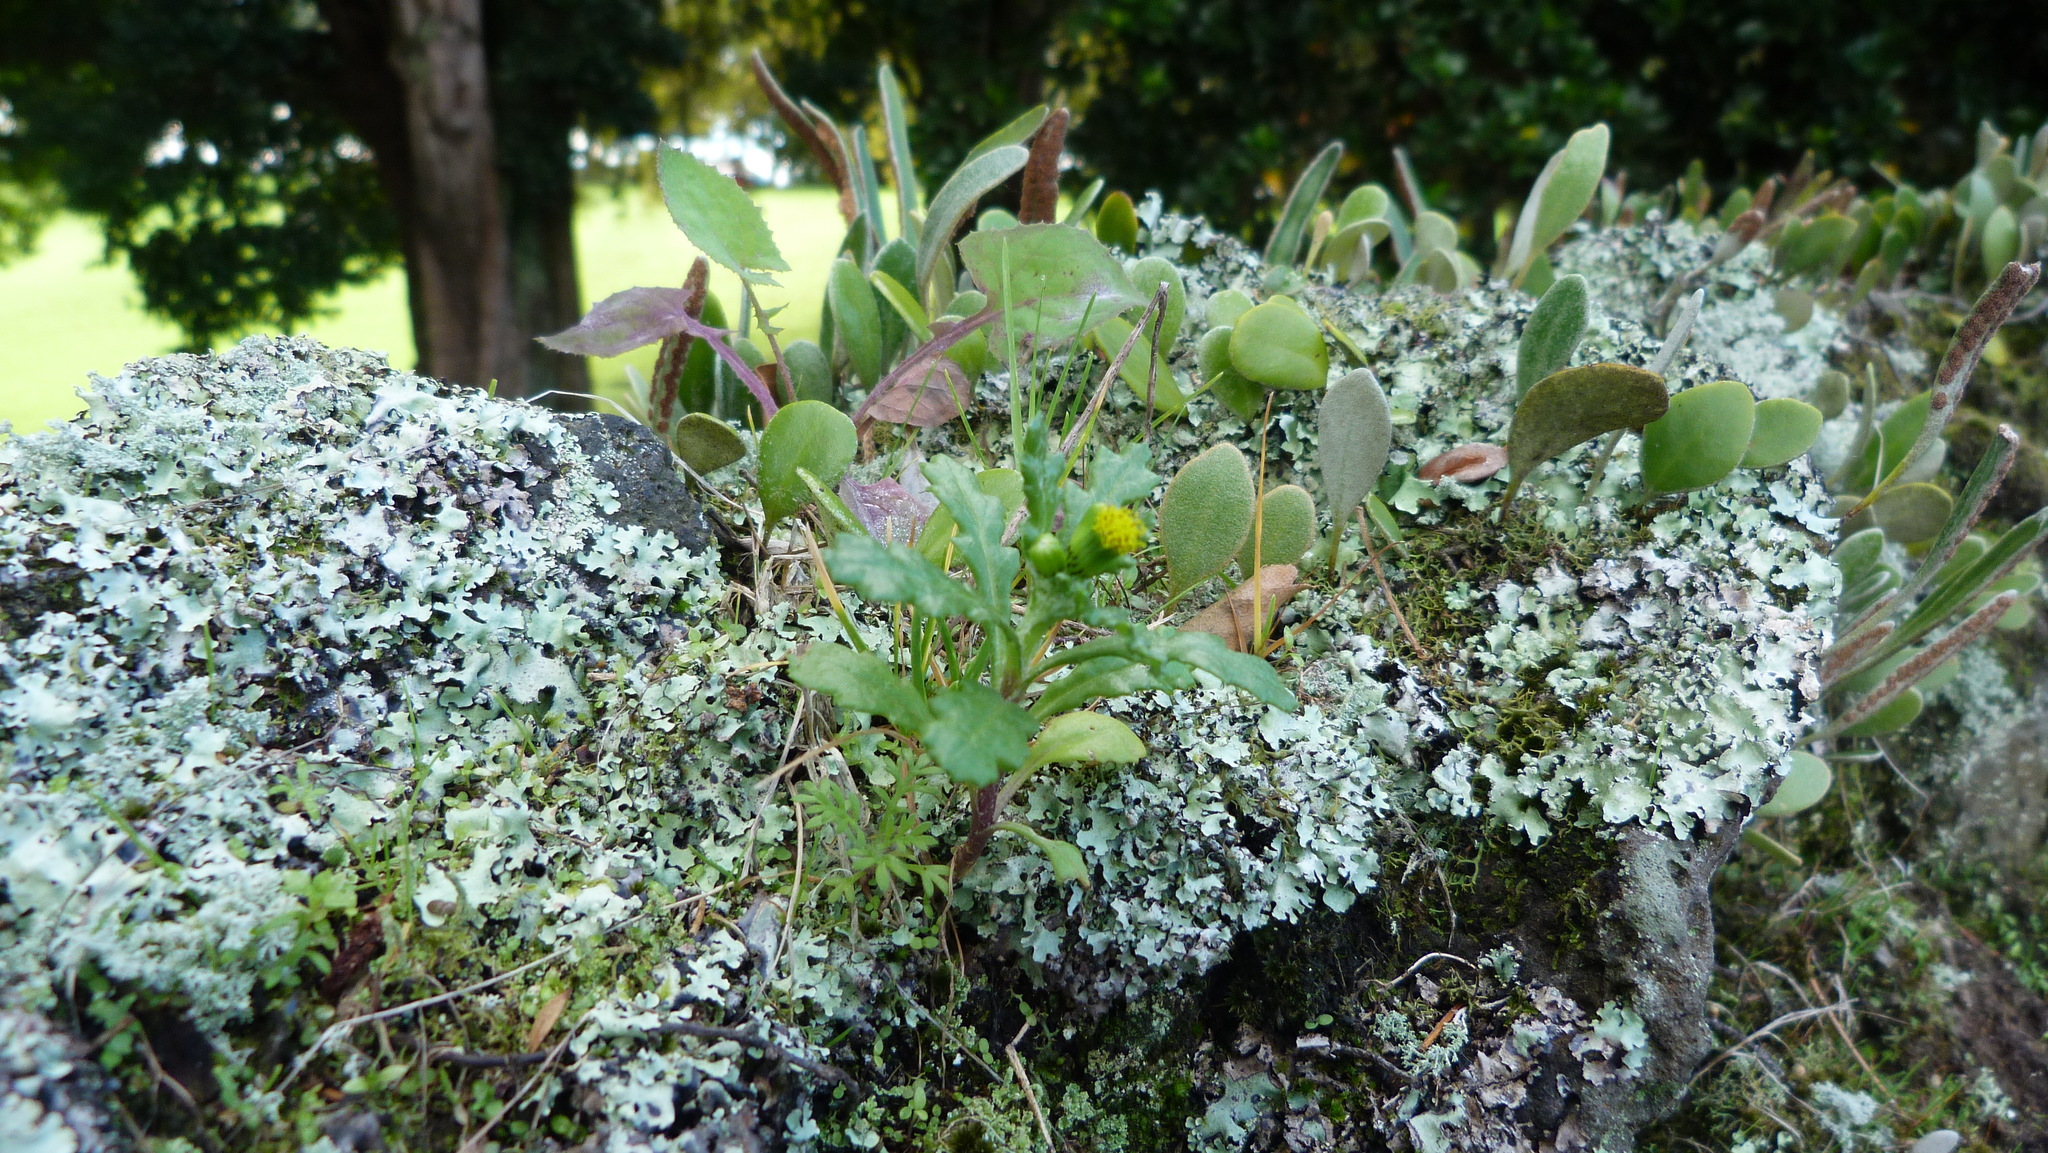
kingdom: Plantae
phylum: Tracheophyta
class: Magnoliopsida
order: Asterales
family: Asteraceae
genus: Senecio
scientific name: Senecio vulgaris
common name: Old-man-in-the-spring
